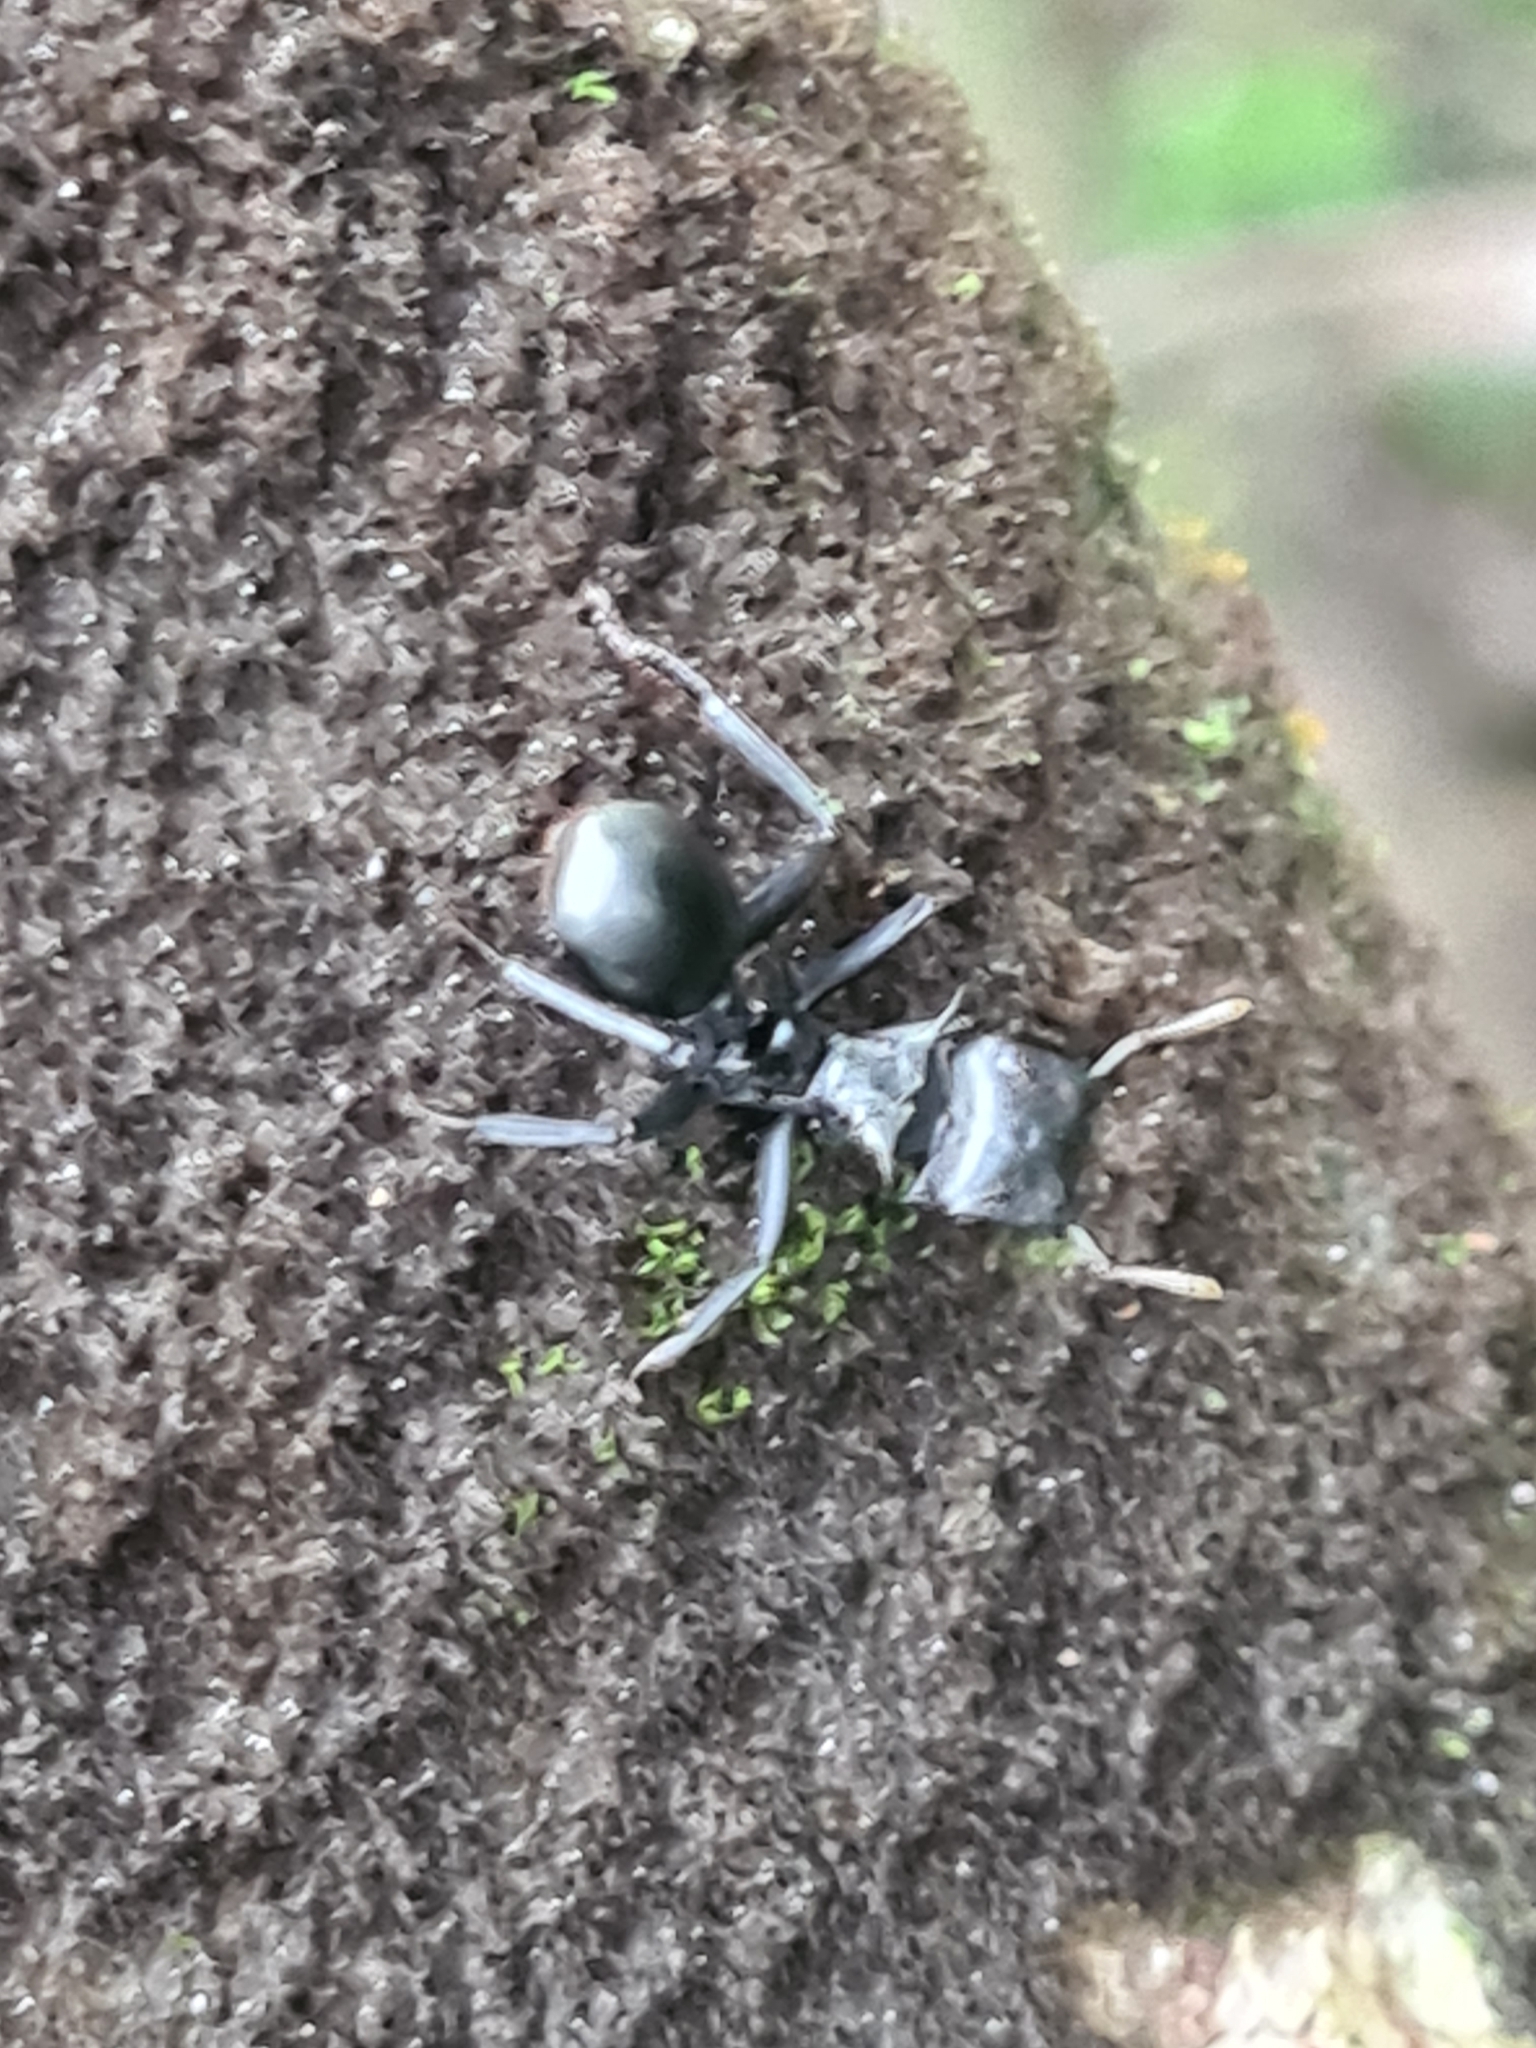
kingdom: Animalia
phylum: Arthropoda
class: Insecta
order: Hymenoptera
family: Formicidae
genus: Cephalotes
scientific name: Cephalotes atratus
